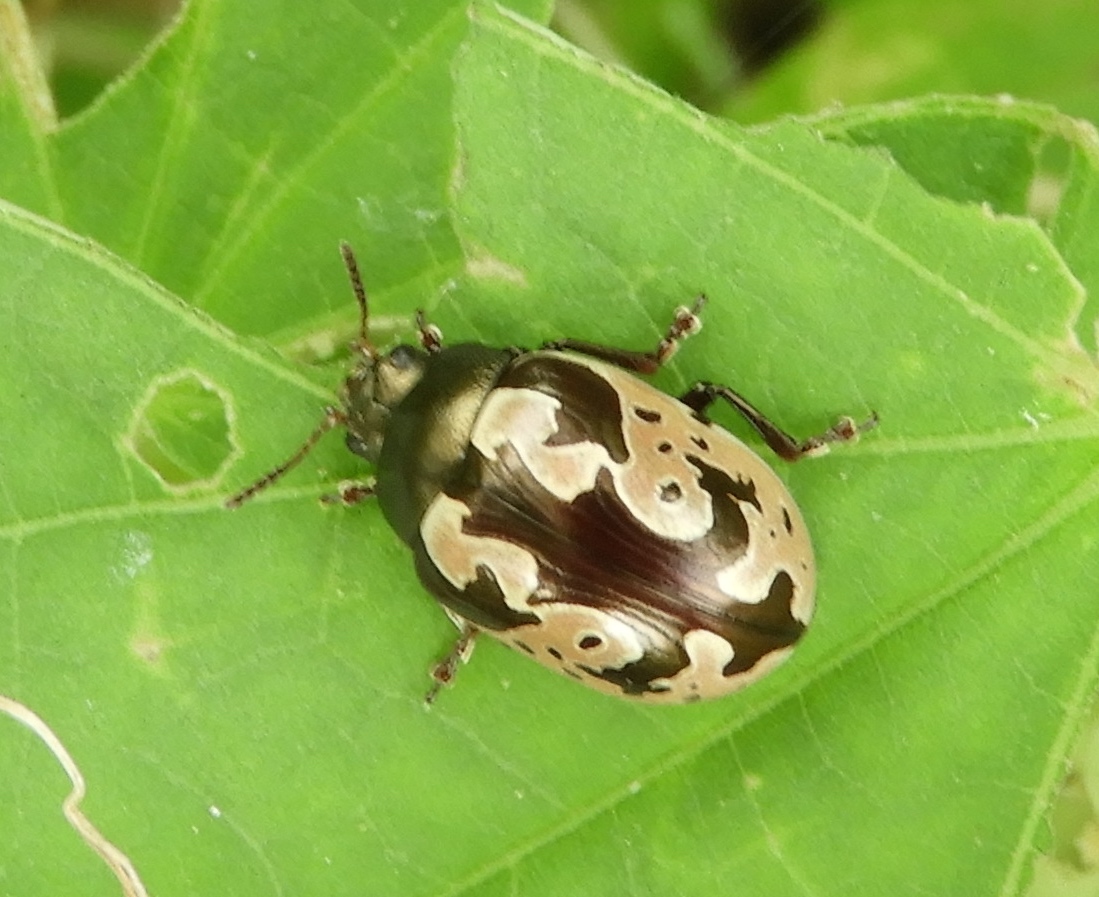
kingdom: Animalia
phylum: Arthropoda
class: Insecta
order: Coleoptera
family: Chrysomelidae
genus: Calligrapha
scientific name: Calligrapha ancoralis
